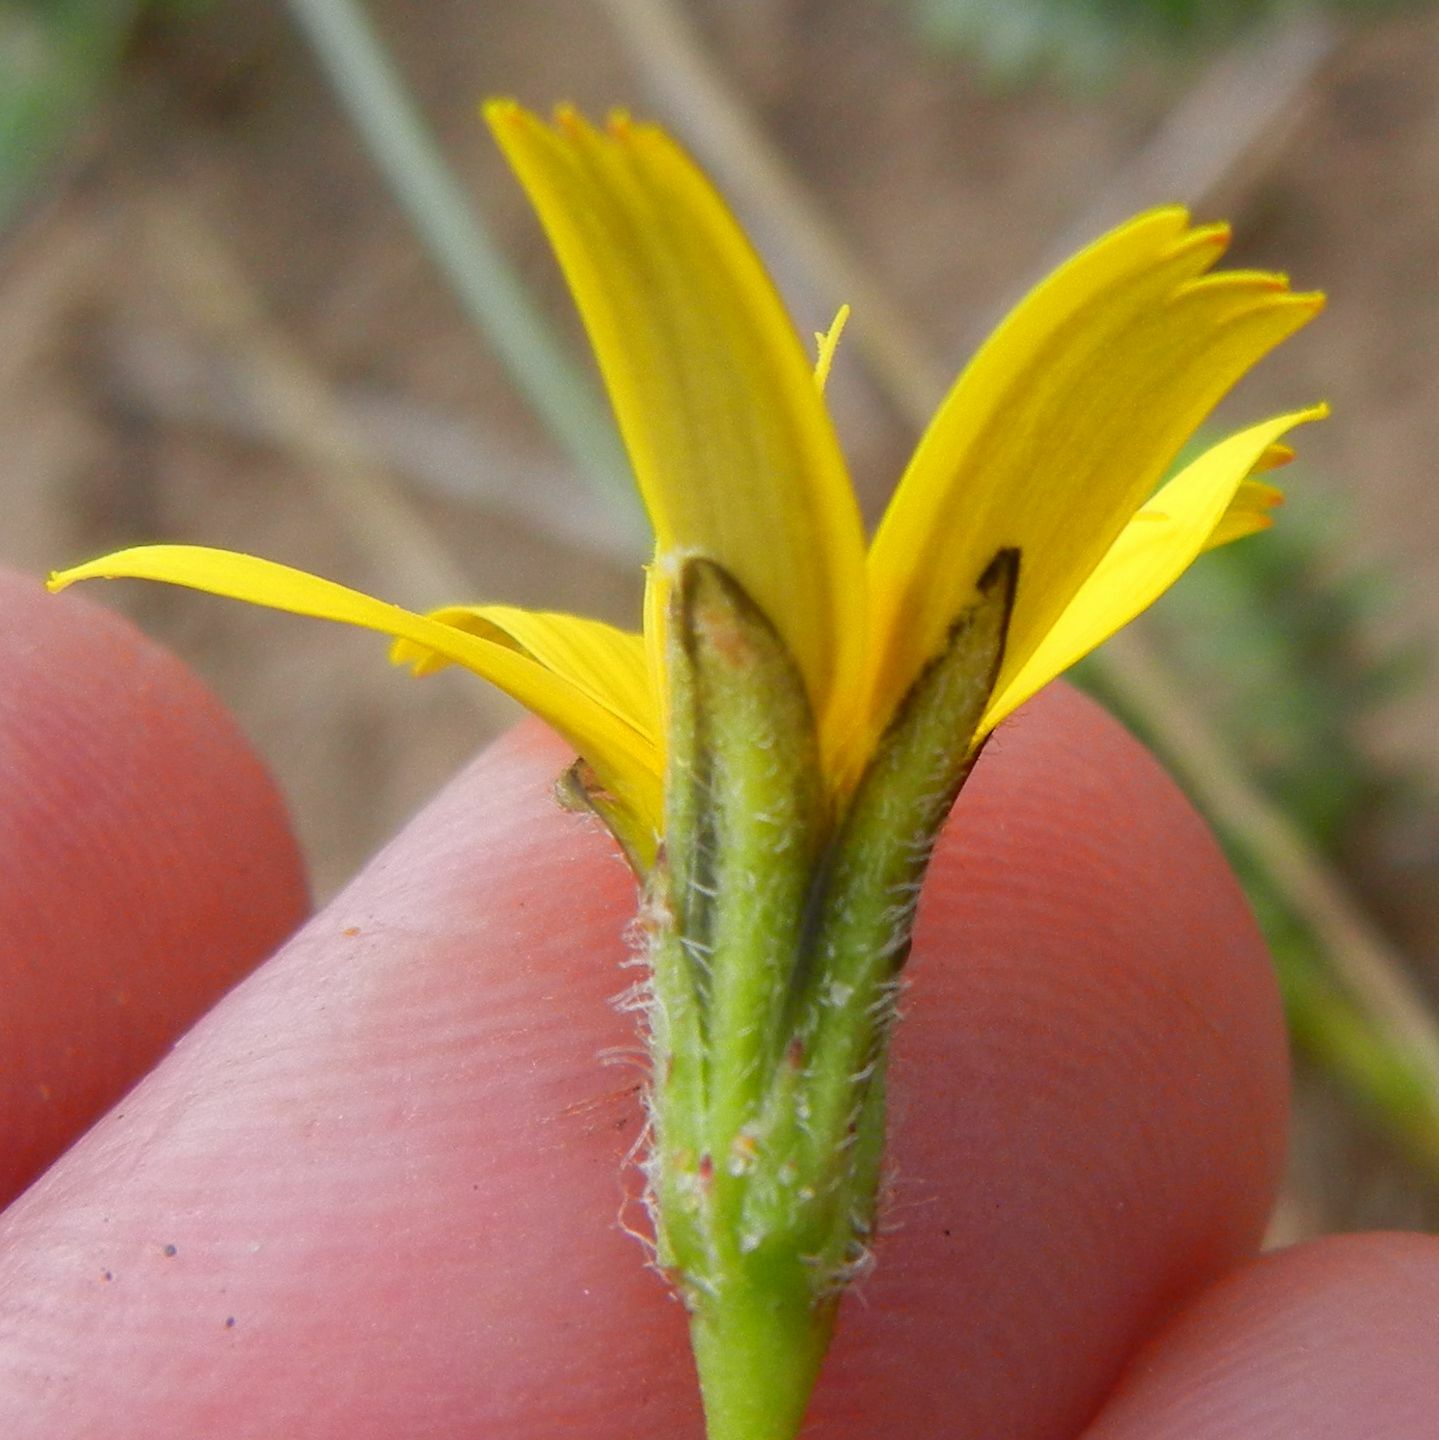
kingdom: Plantae
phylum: Tracheophyta
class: Magnoliopsida
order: Asterales
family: Asteraceae
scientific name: Asteraceae
